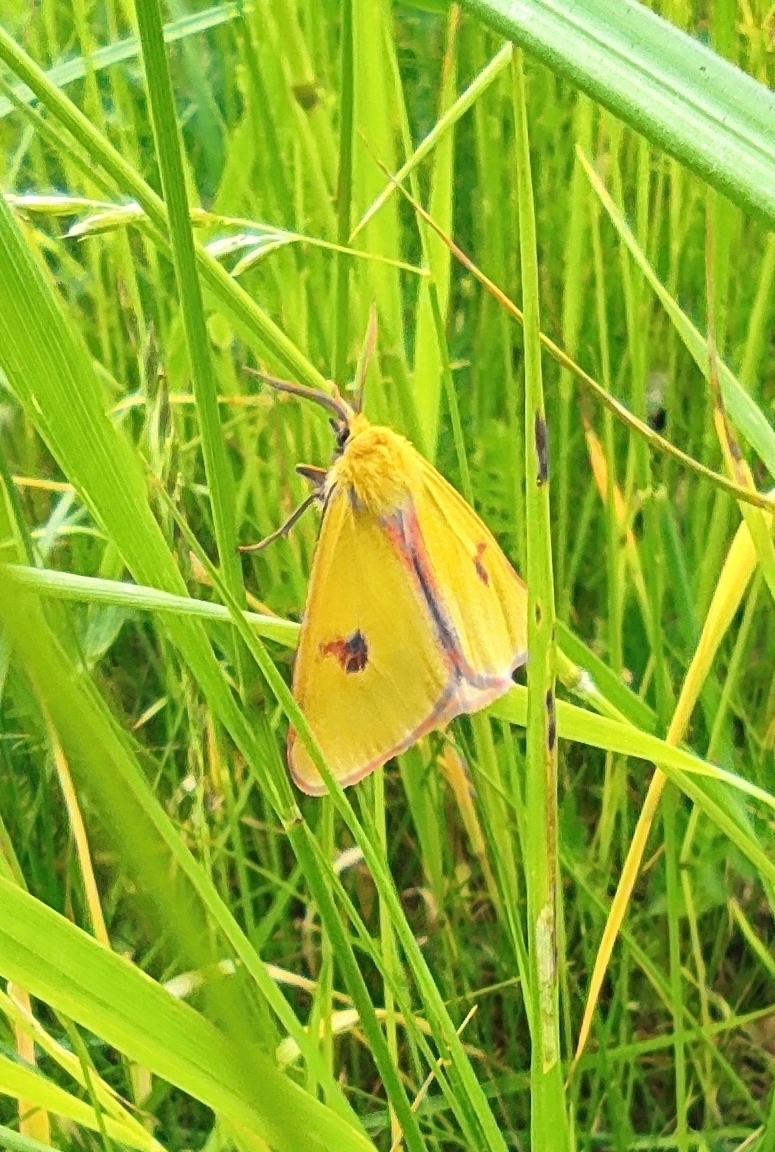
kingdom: Animalia
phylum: Arthropoda
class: Insecta
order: Lepidoptera
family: Erebidae
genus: Diacrisia
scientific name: Diacrisia sannio
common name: Clouded buff
